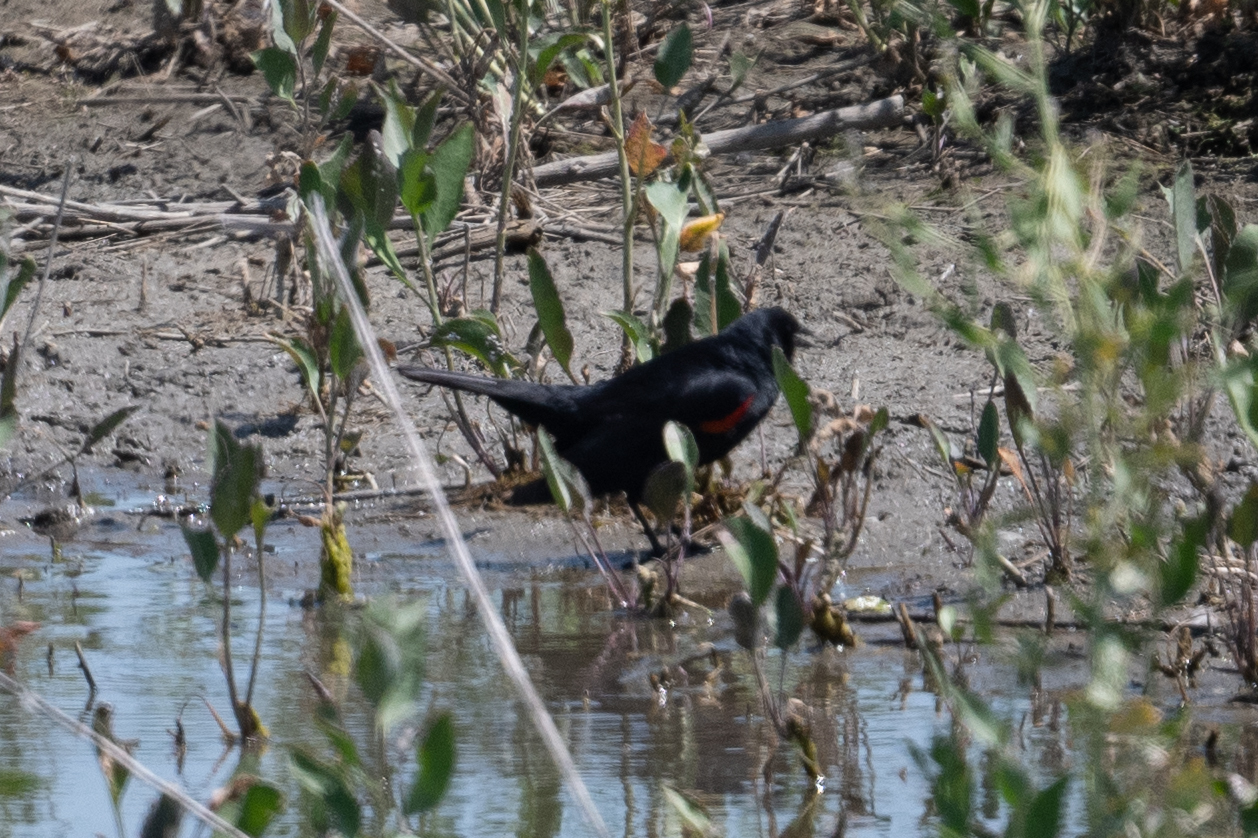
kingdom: Animalia
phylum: Chordata
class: Aves
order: Passeriformes
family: Icteridae
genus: Agelaius
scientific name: Agelaius phoeniceus
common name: Red-winged blackbird
